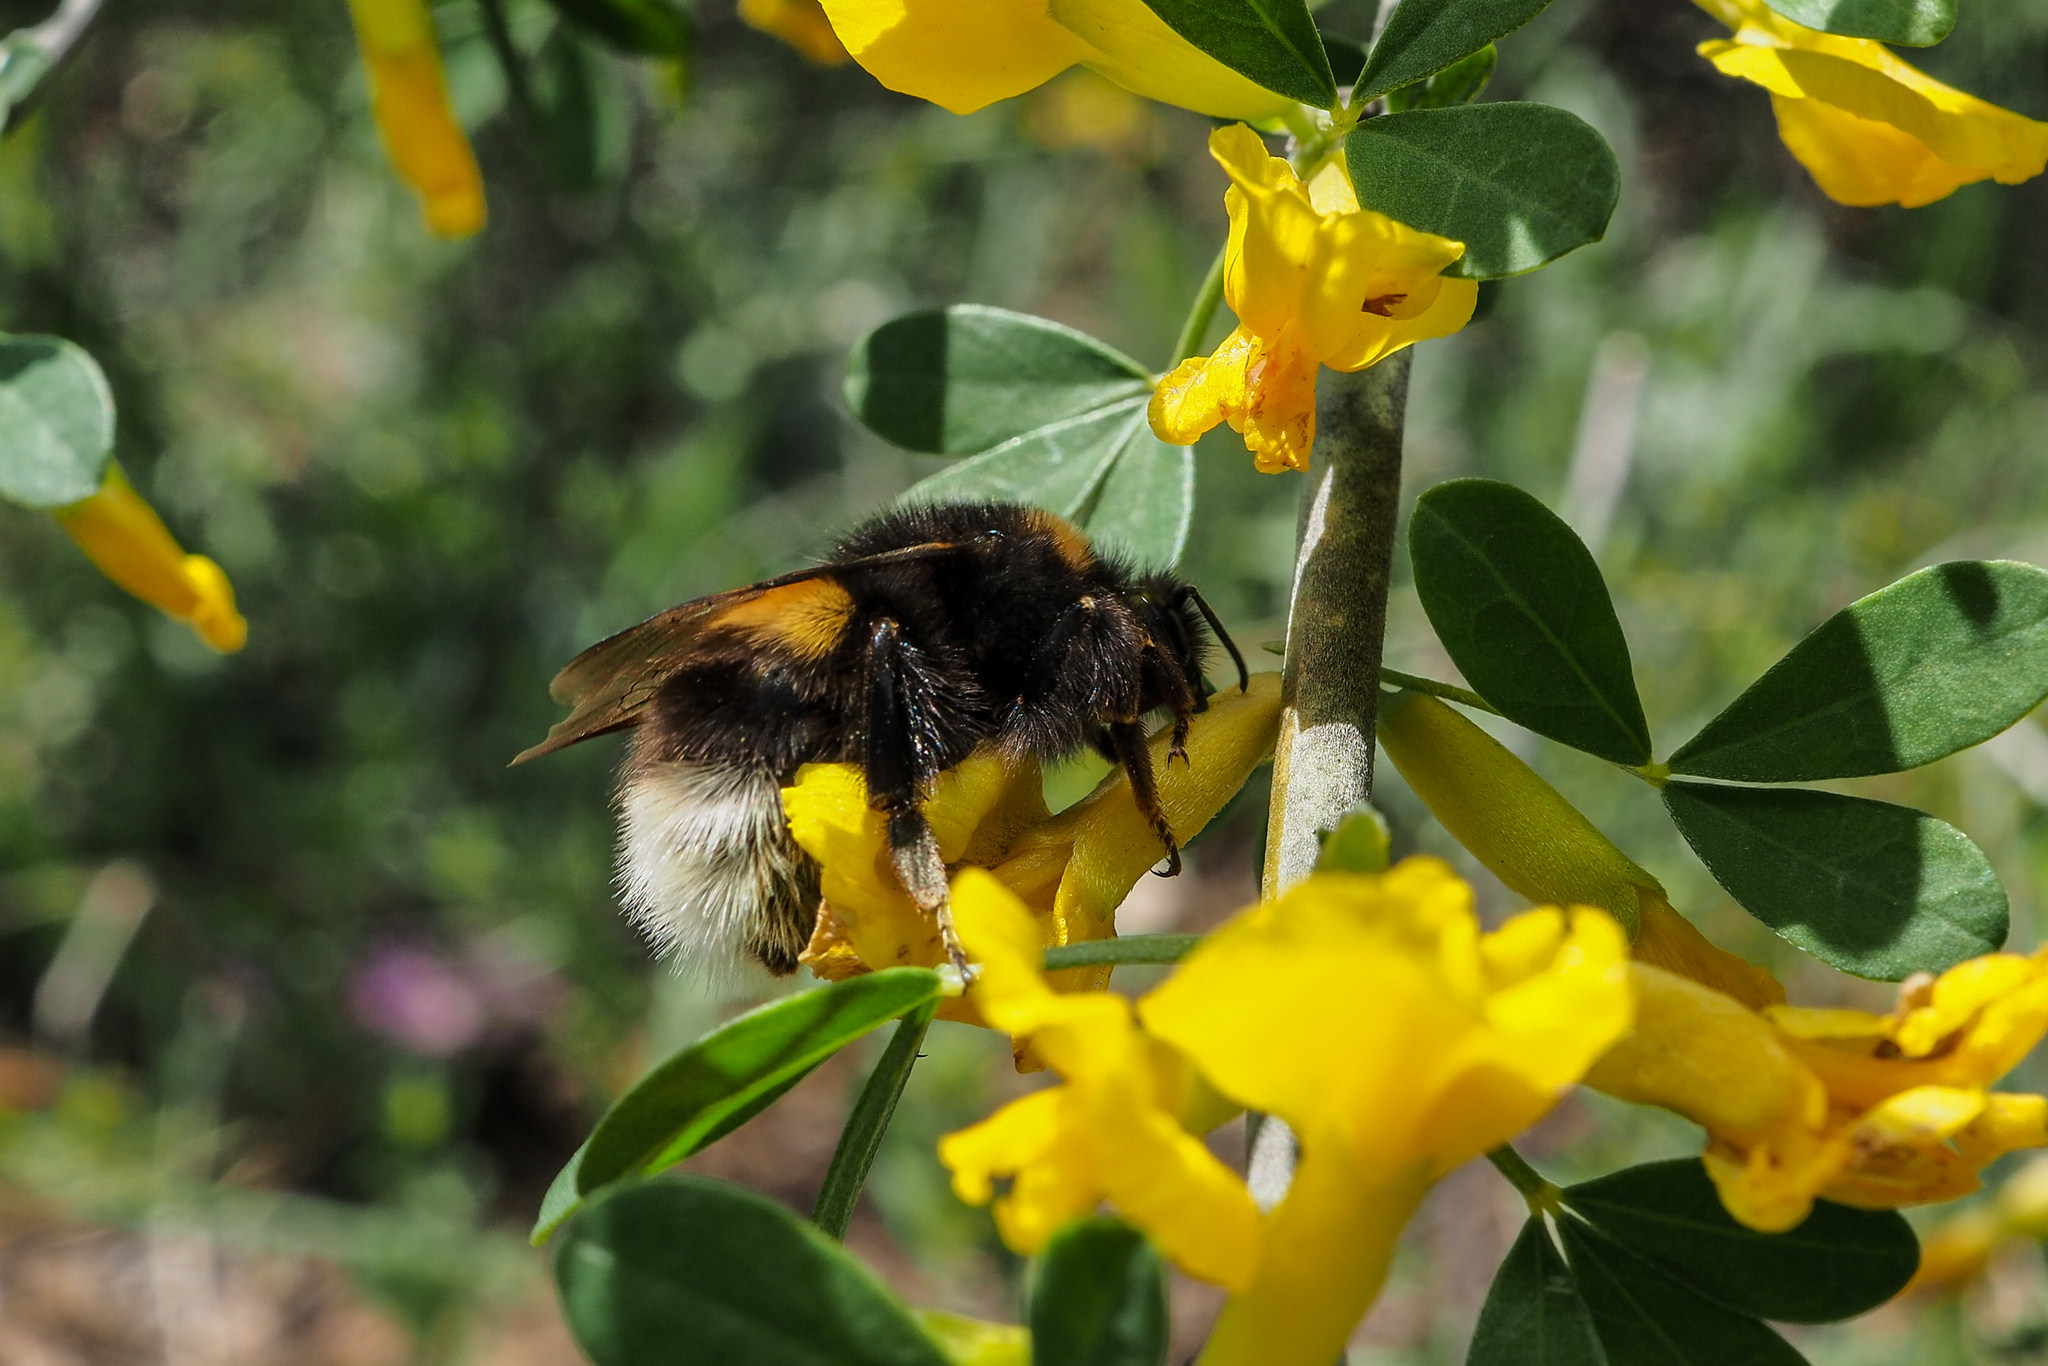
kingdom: Animalia
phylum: Arthropoda
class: Insecta
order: Hymenoptera
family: Apidae
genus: Bombus
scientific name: Bombus
